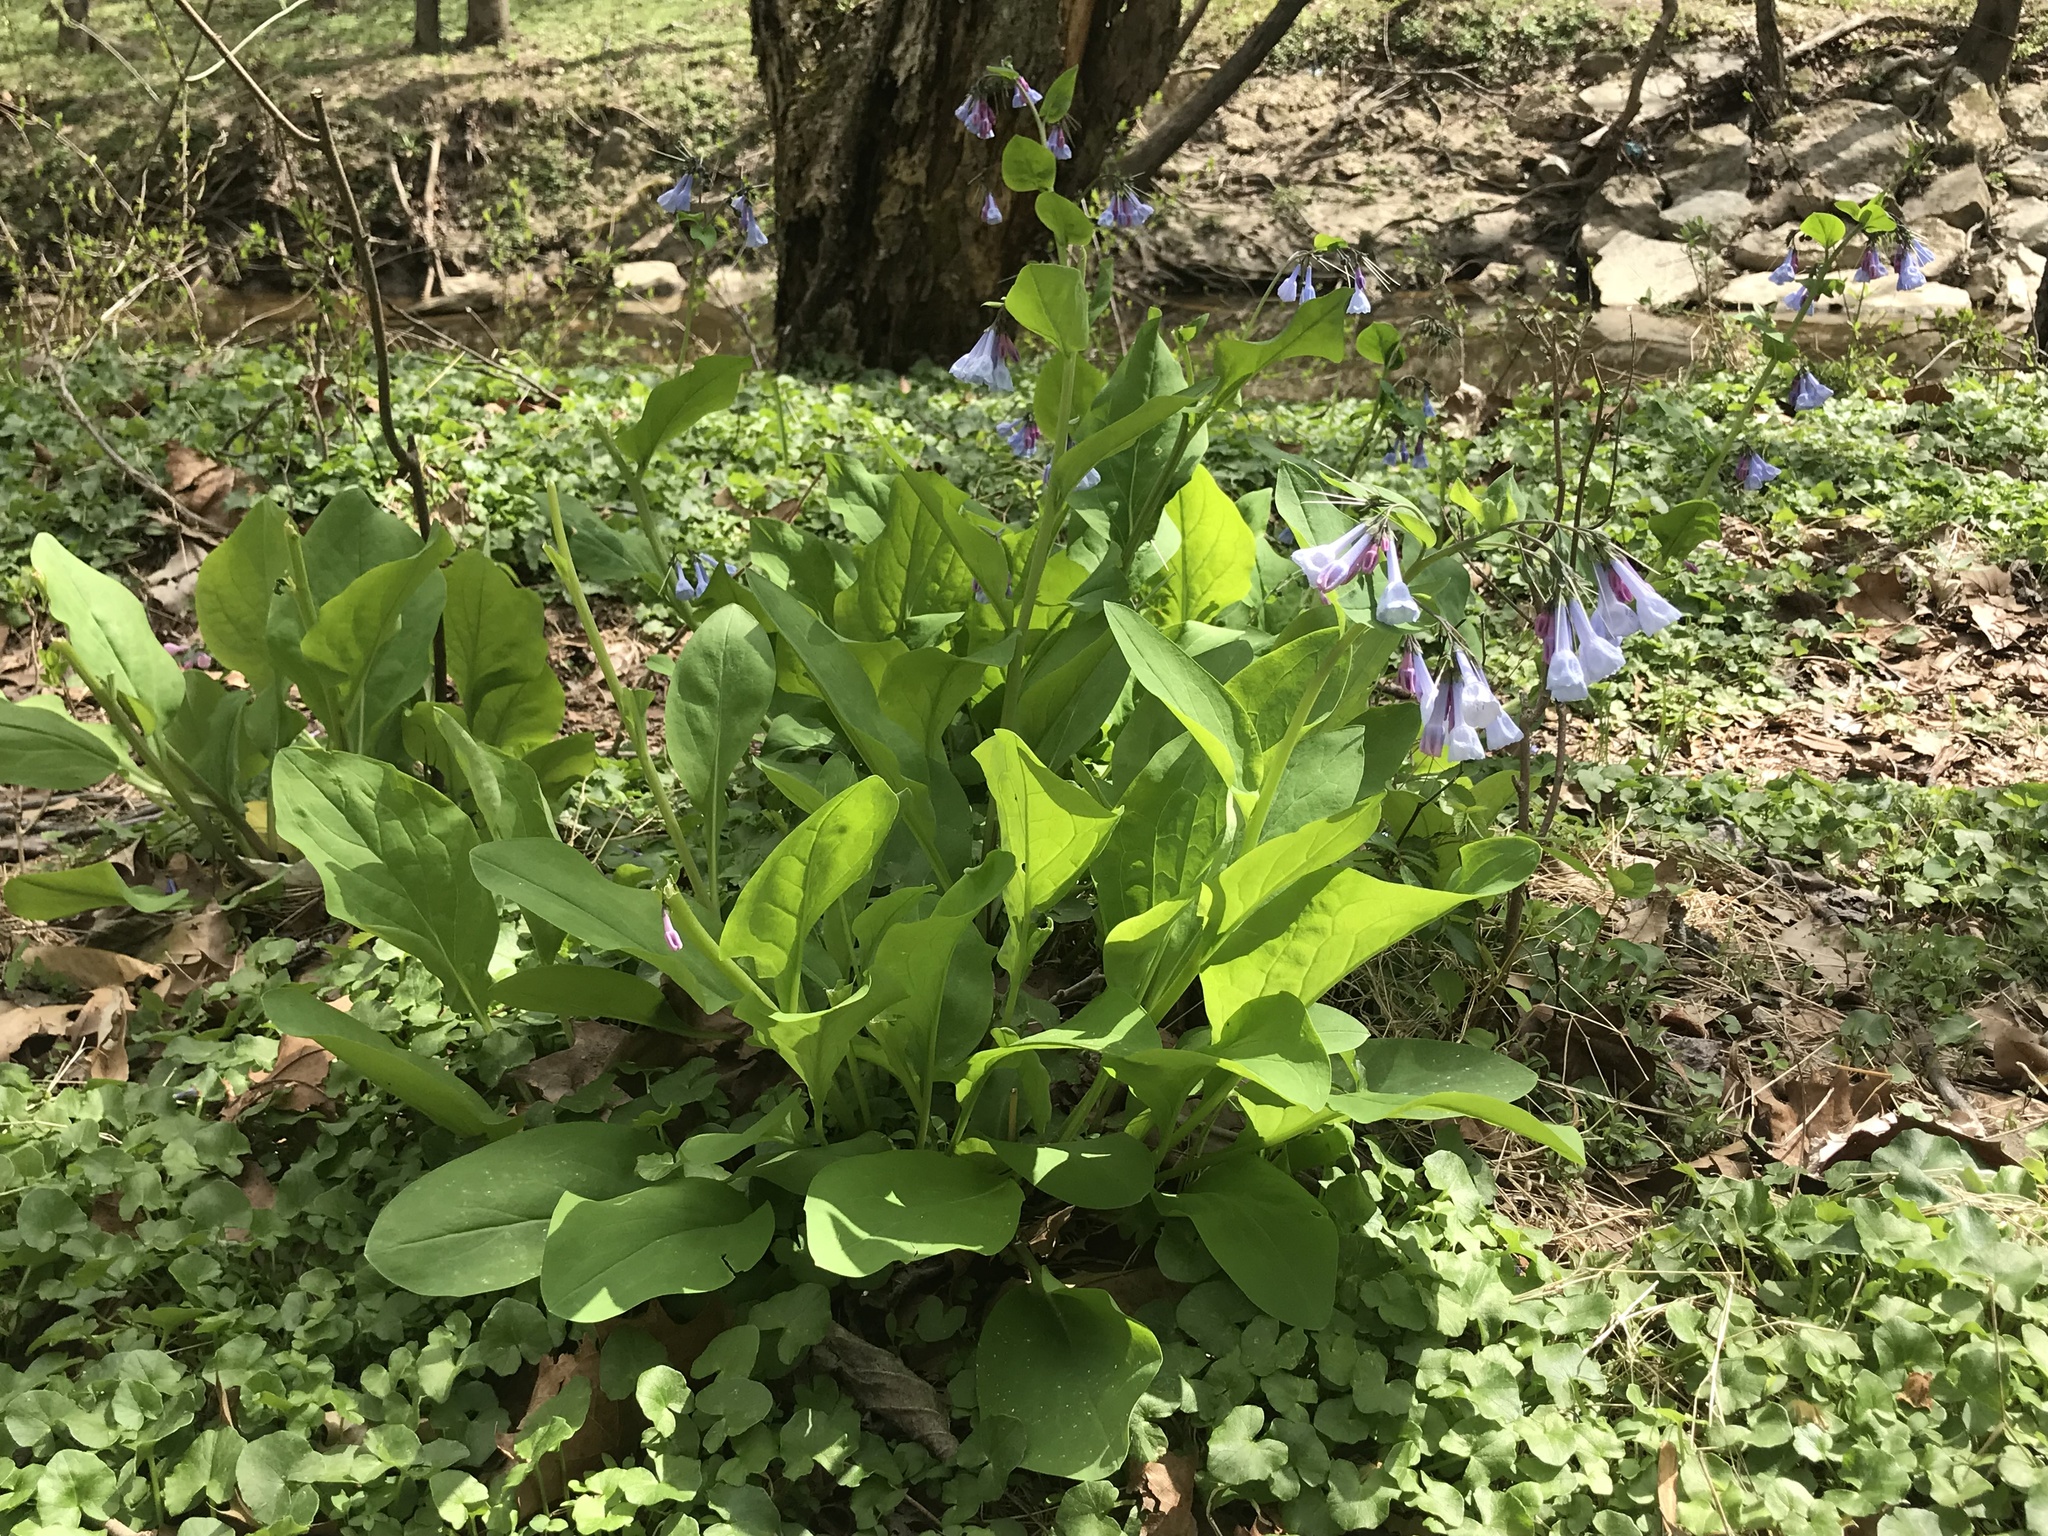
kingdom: Plantae
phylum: Tracheophyta
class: Magnoliopsida
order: Boraginales
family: Boraginaceae
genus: Mertensia
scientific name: Mertensia virginica
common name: Virginia bluebells
